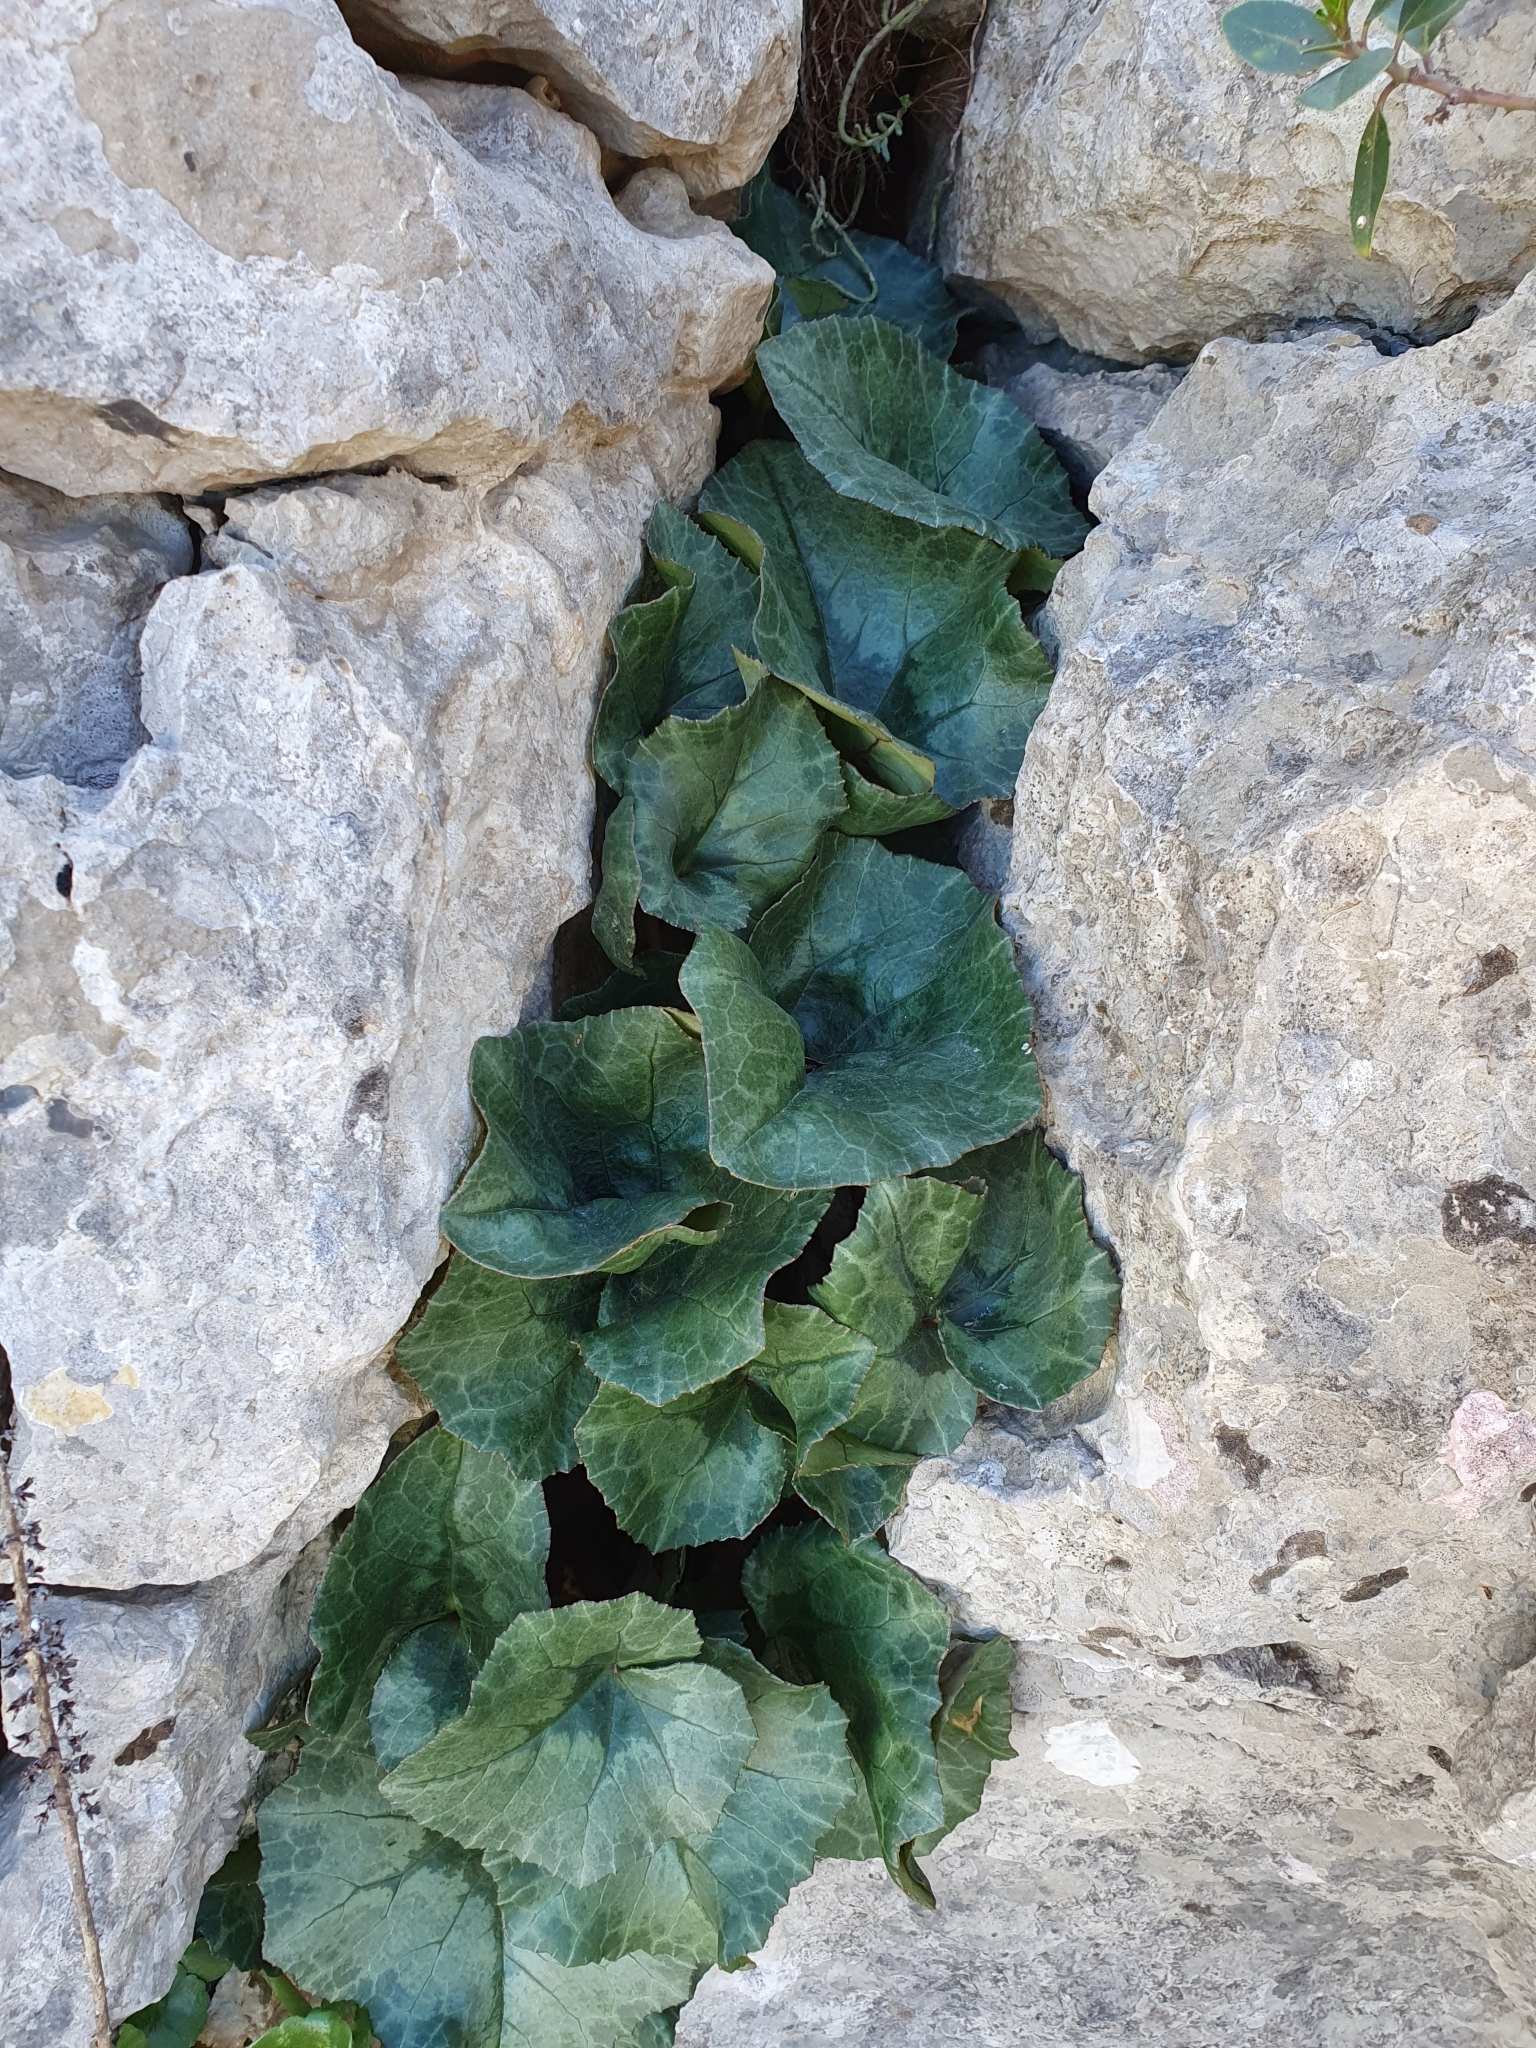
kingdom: Plantae
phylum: Tracheophyta
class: Magnoliopsida
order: Ericales
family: Primulaceae
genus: Cyclamen
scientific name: Cyclamen africanum
